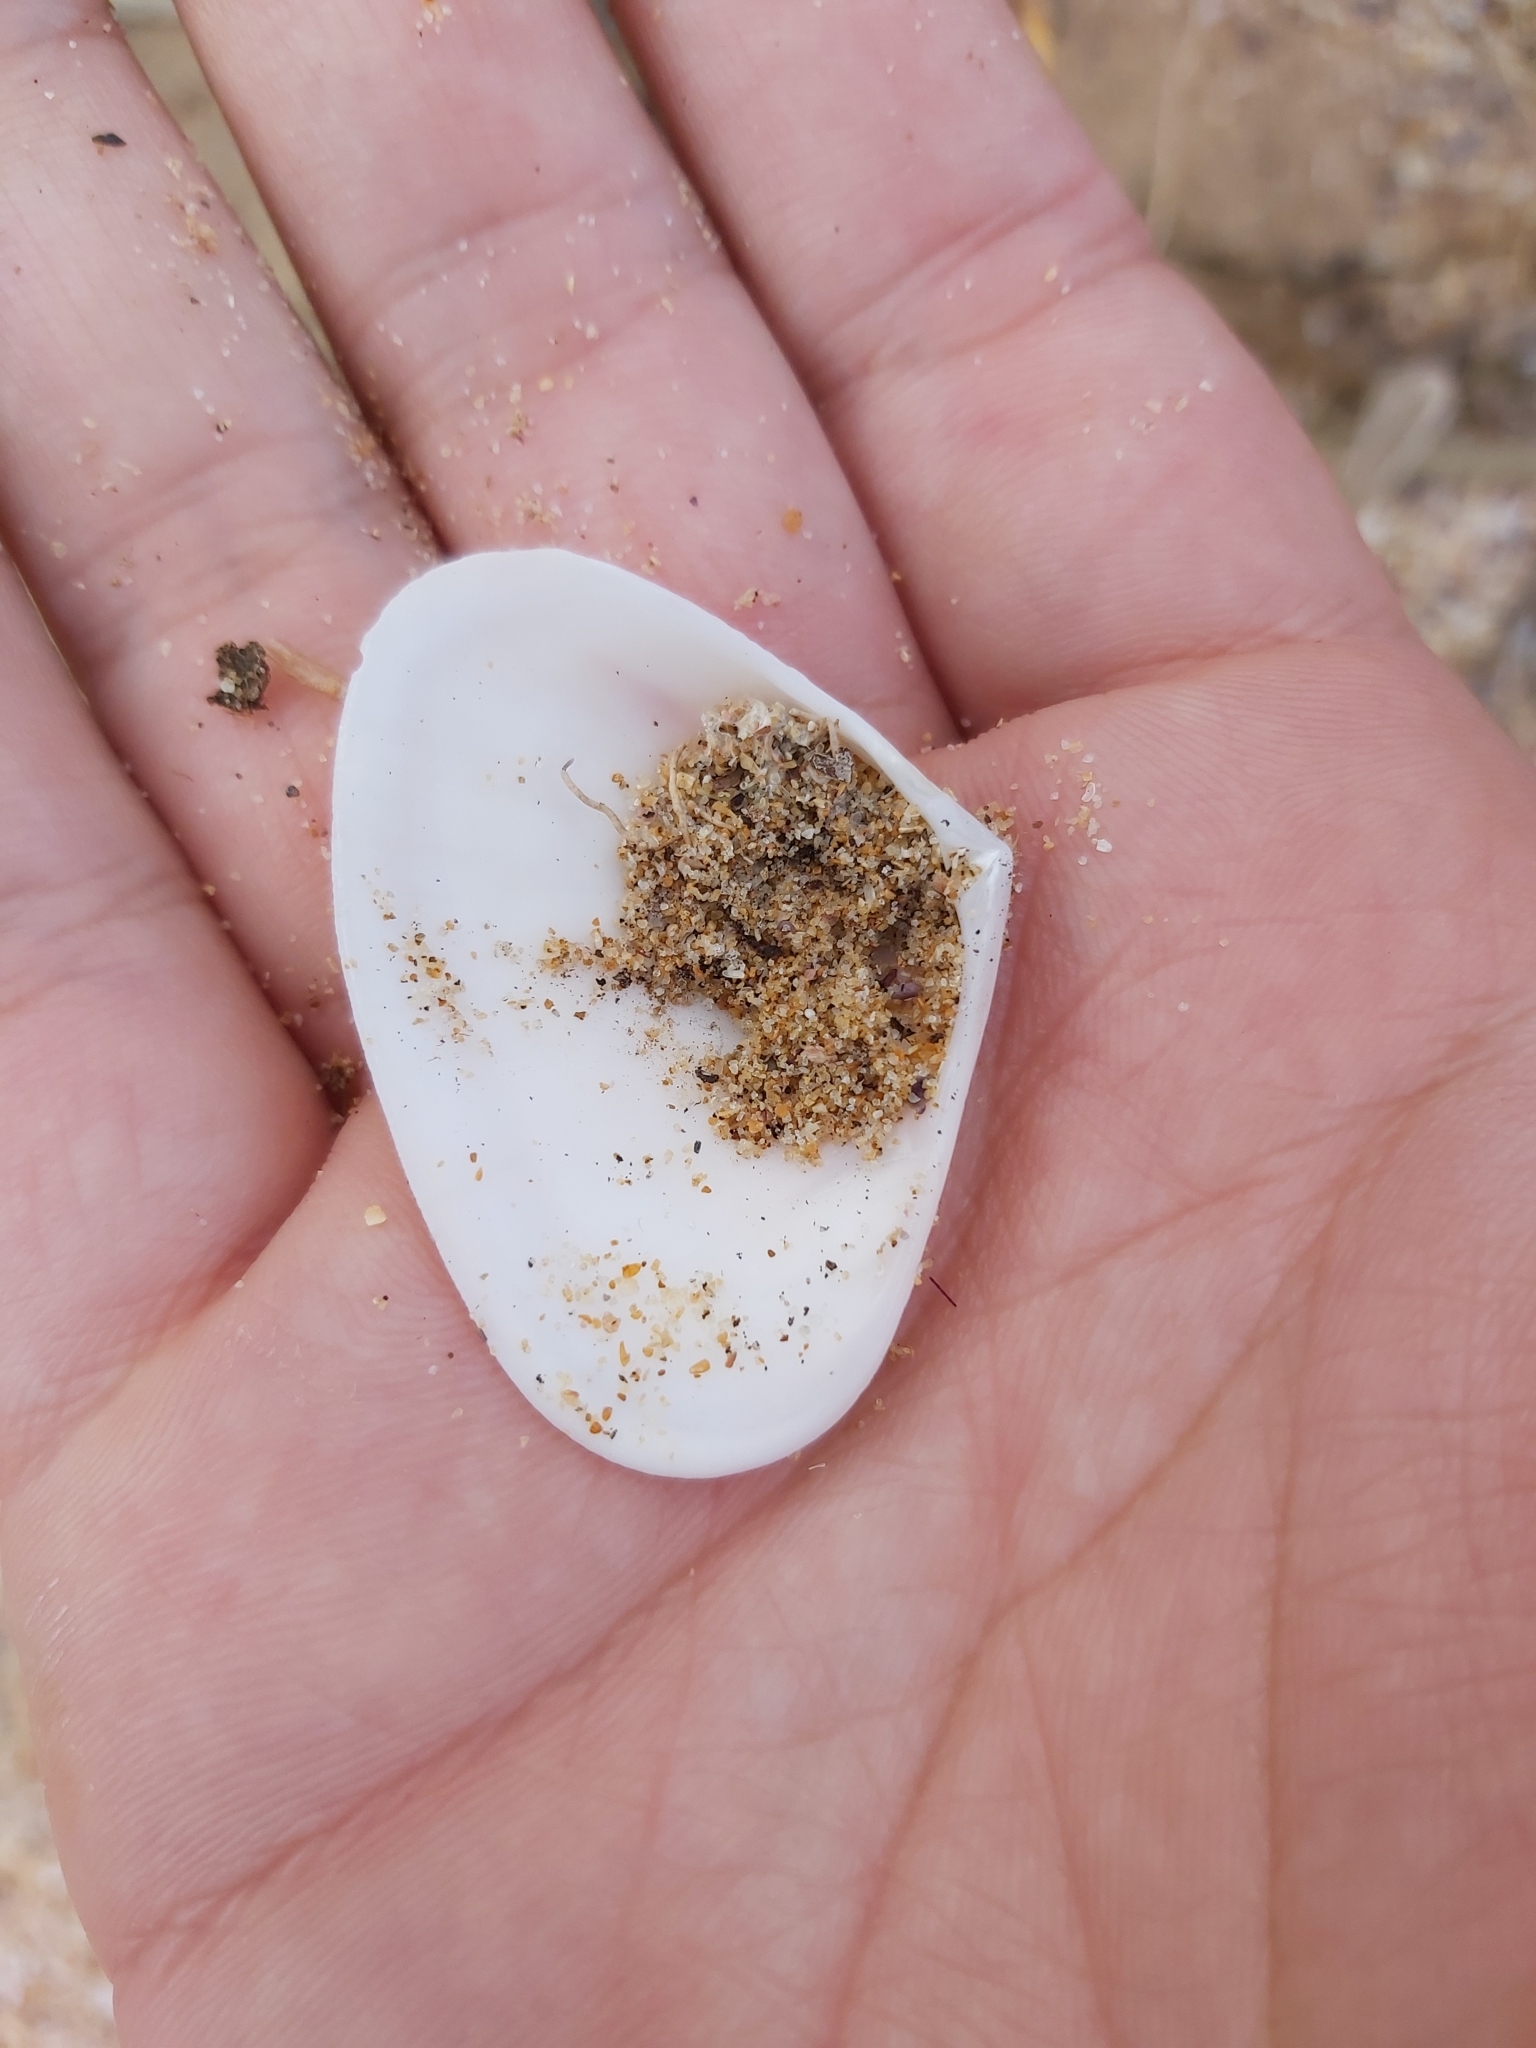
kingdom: Animalia
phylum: Mollusca
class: Bivalvia
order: Cardiida
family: Donacidae
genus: Latona
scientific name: Latona deltoides
